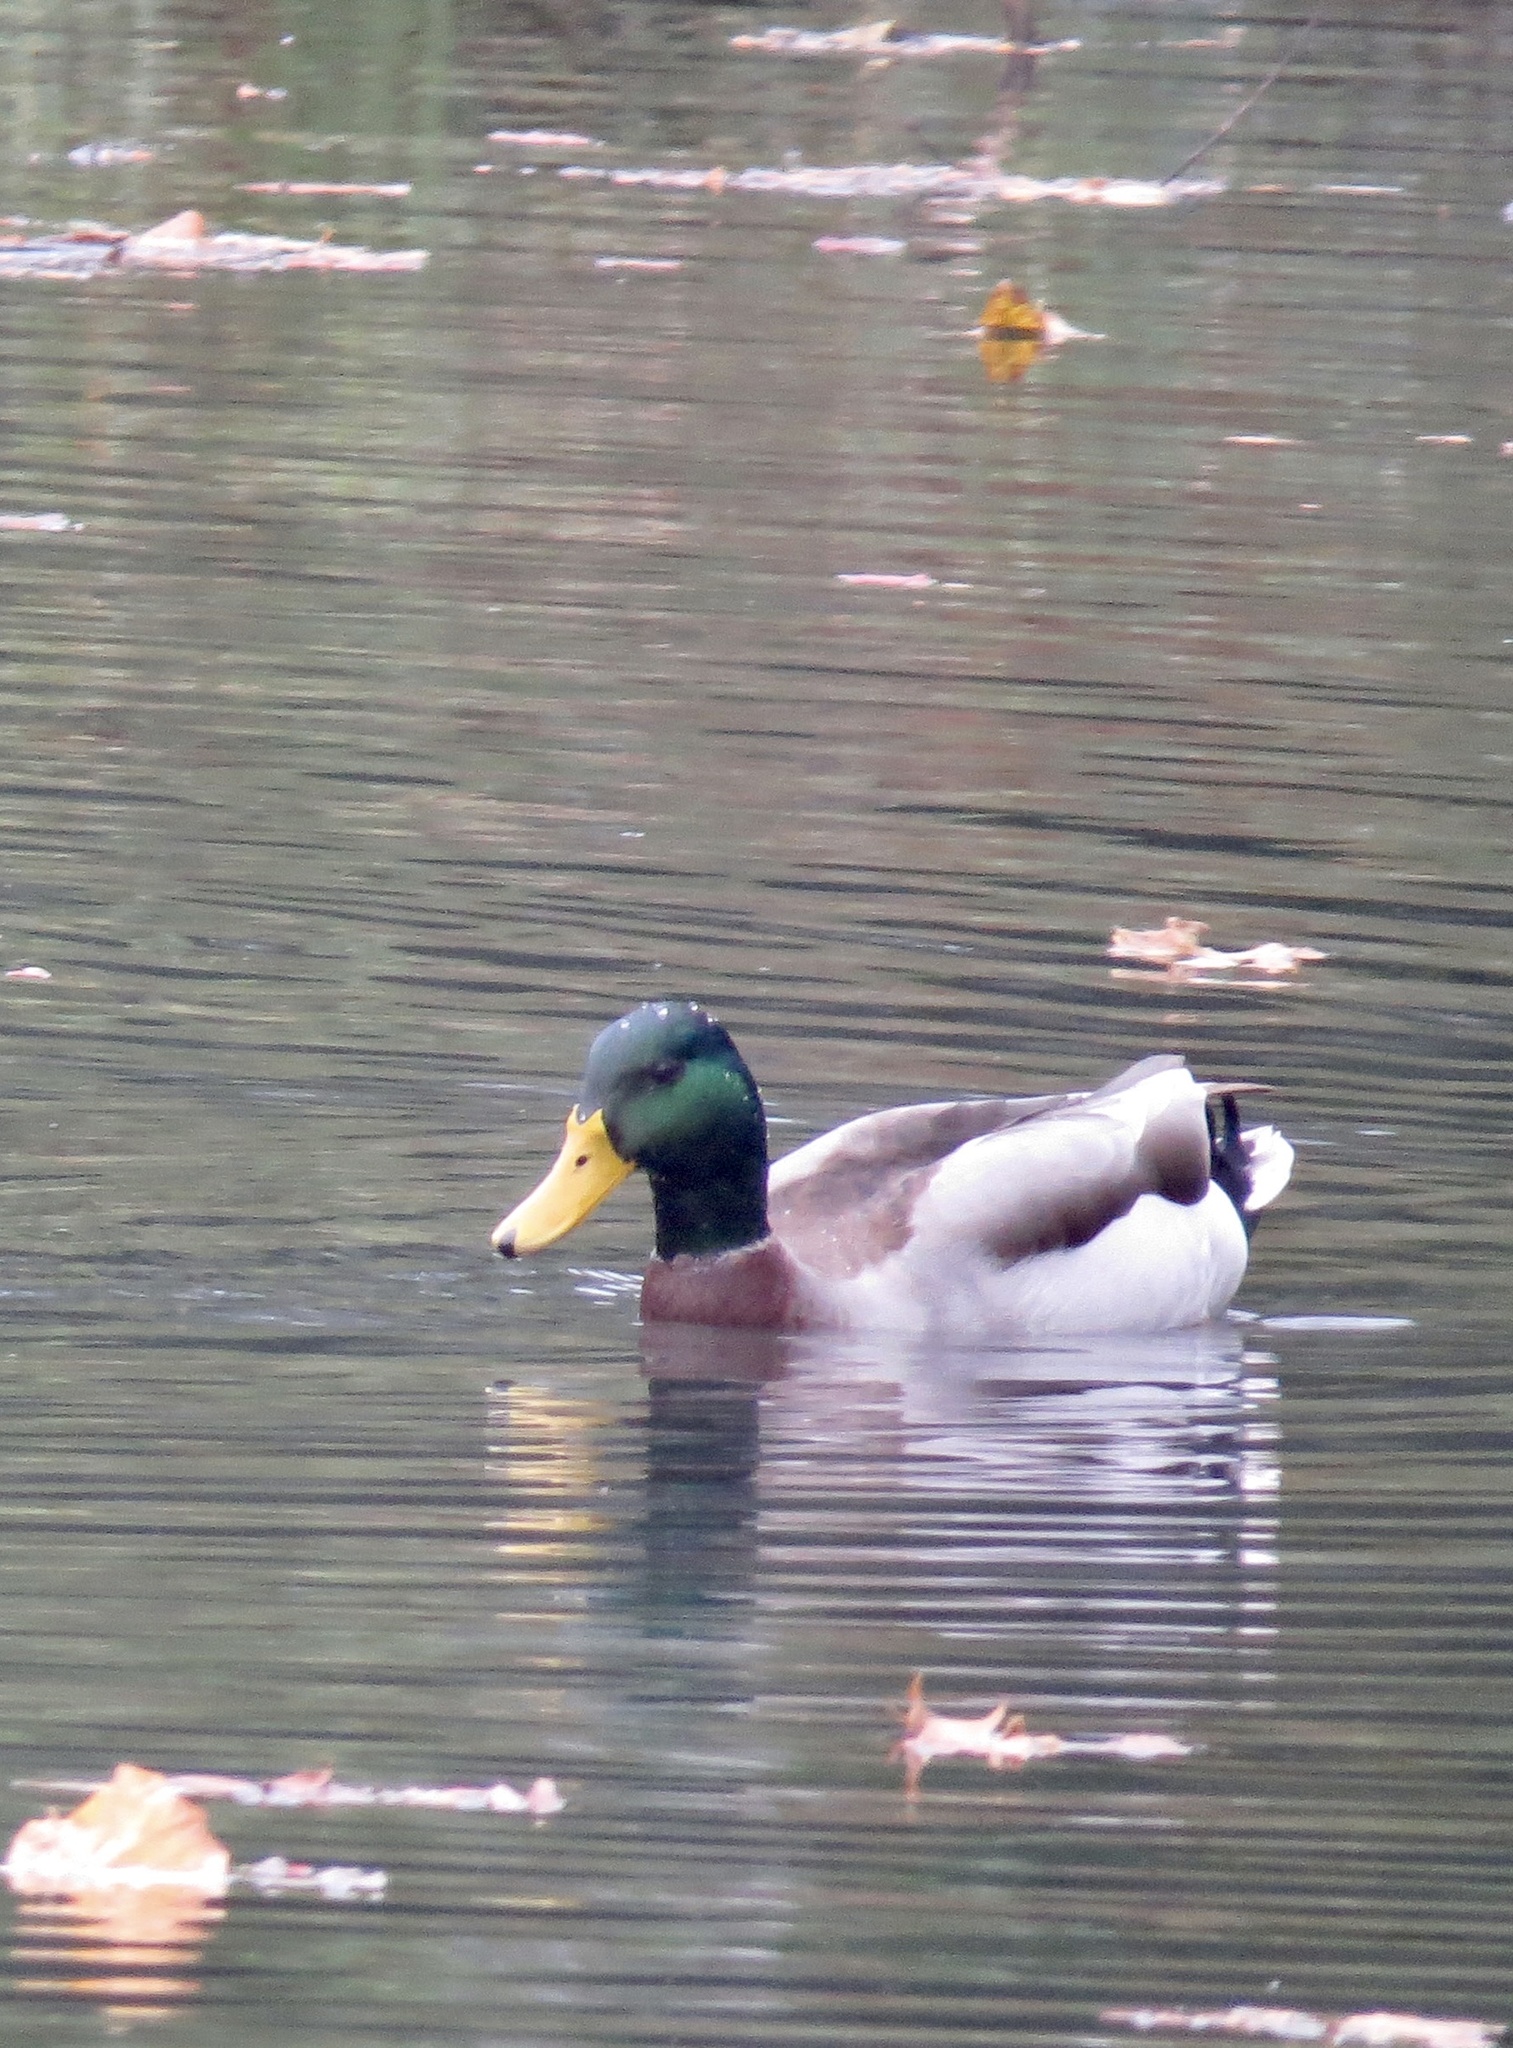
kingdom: Animalia
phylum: Chordata
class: Aves
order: Anseriformes
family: Anatidae
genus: Anas
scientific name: Anas platyrhynchos
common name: Mallard
